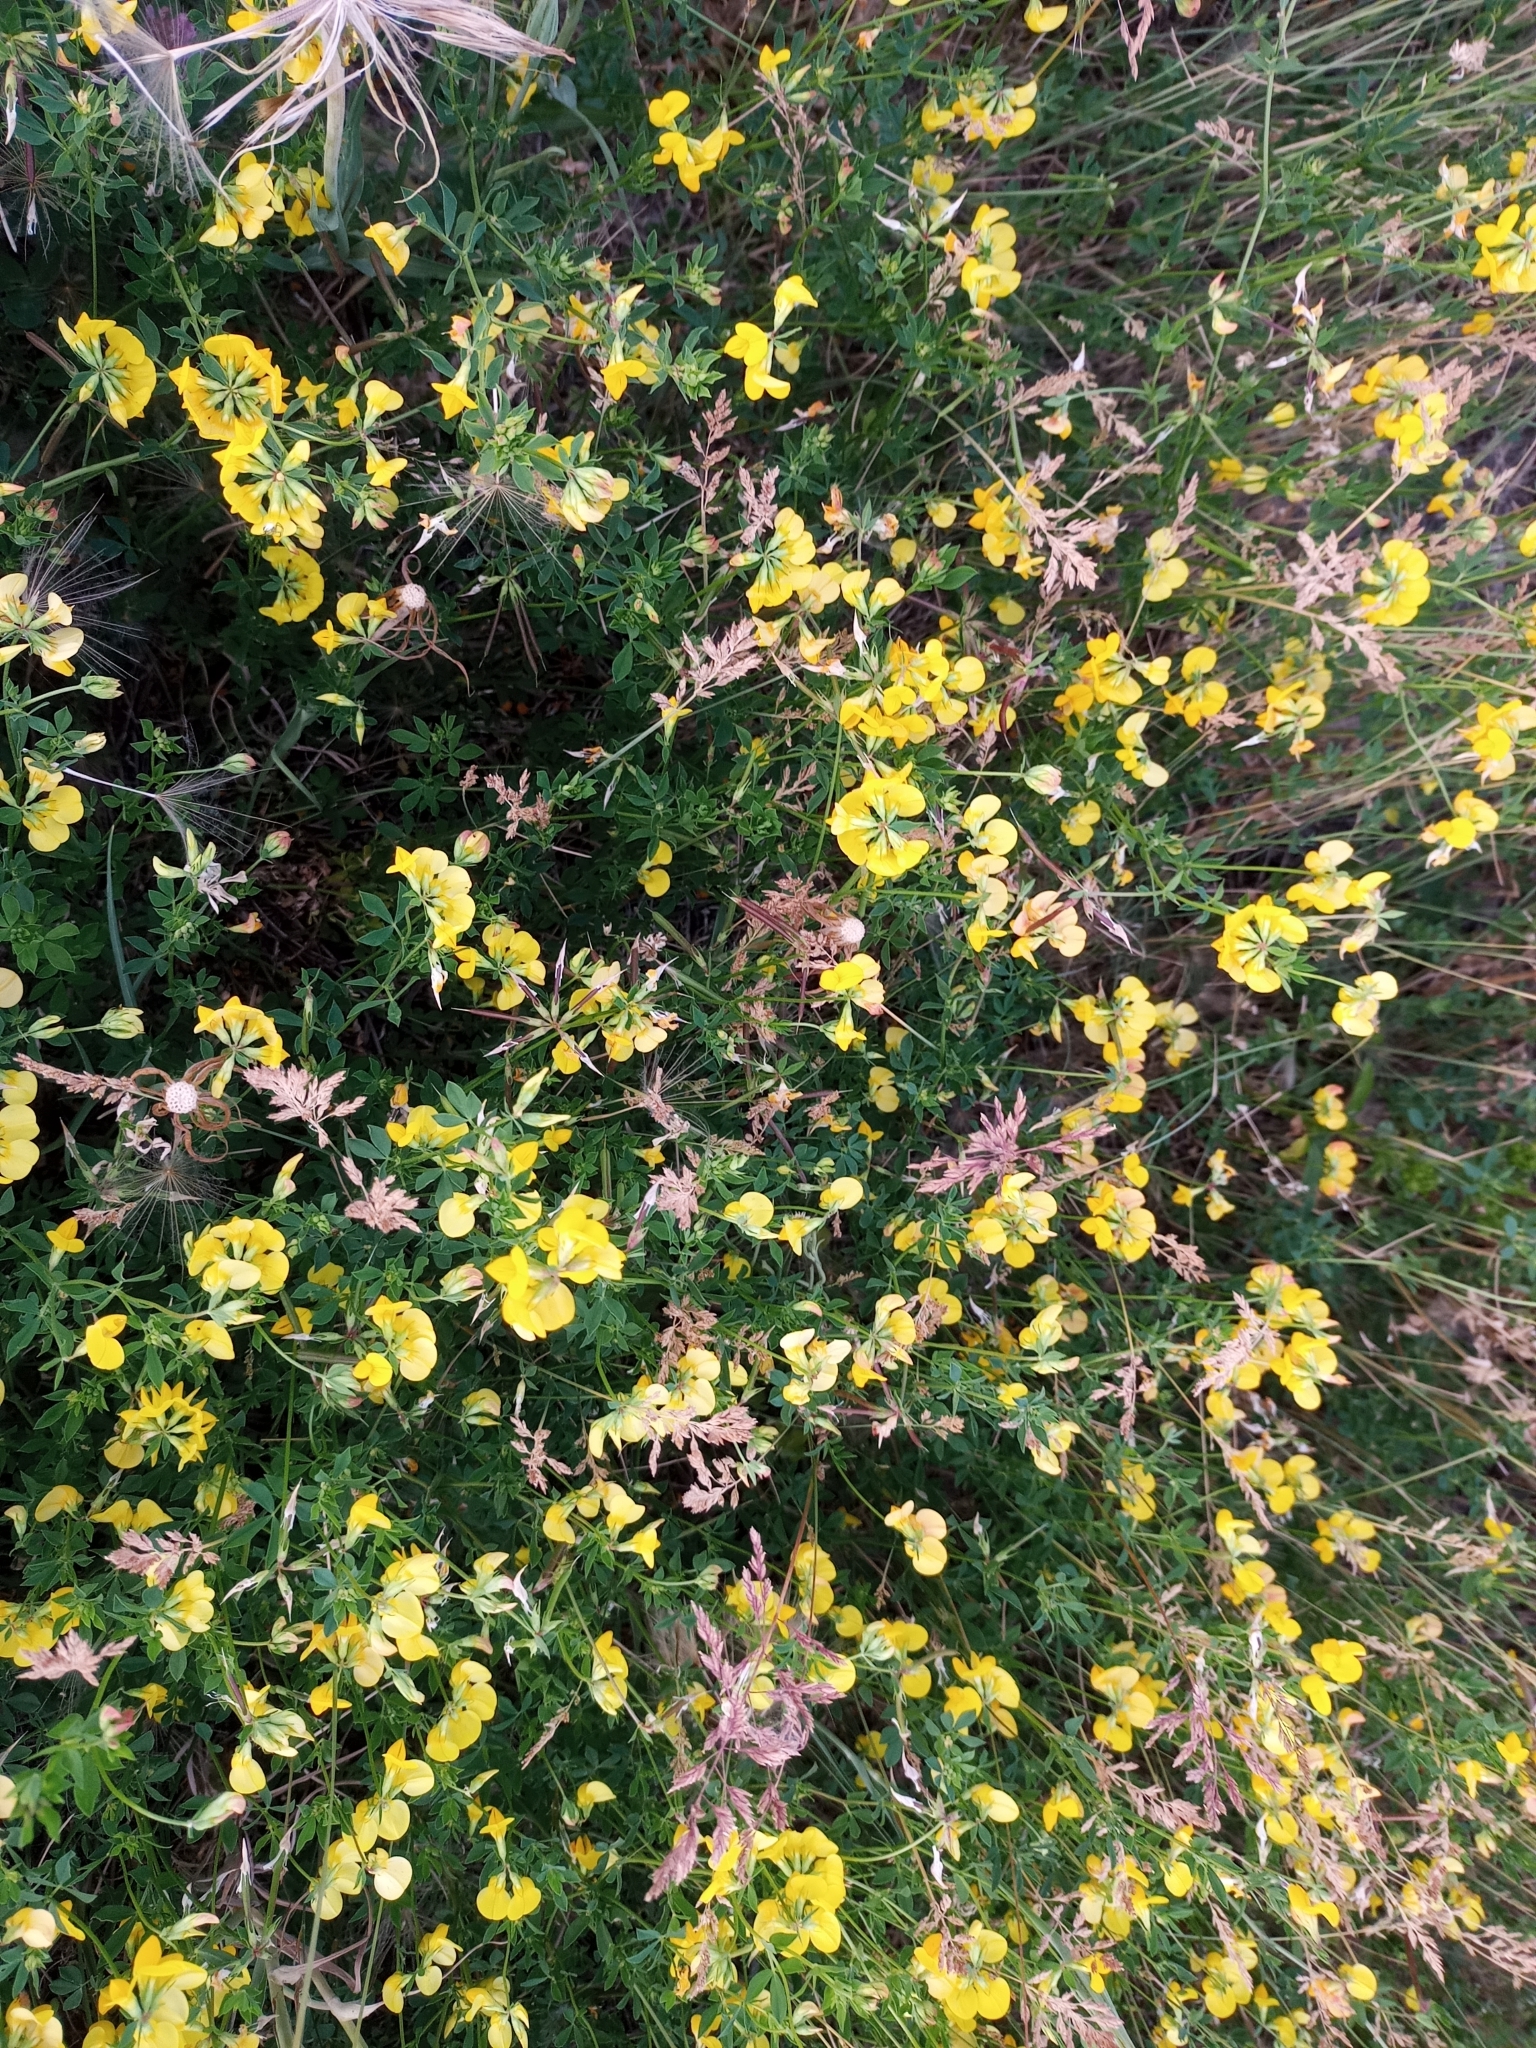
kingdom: Plantae
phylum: Tracheophyta
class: Magnoliopsida
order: Fabales
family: Fabaceae
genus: Lotus
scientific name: Lotus corniculatus
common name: Common bird's-foot-trefoil
